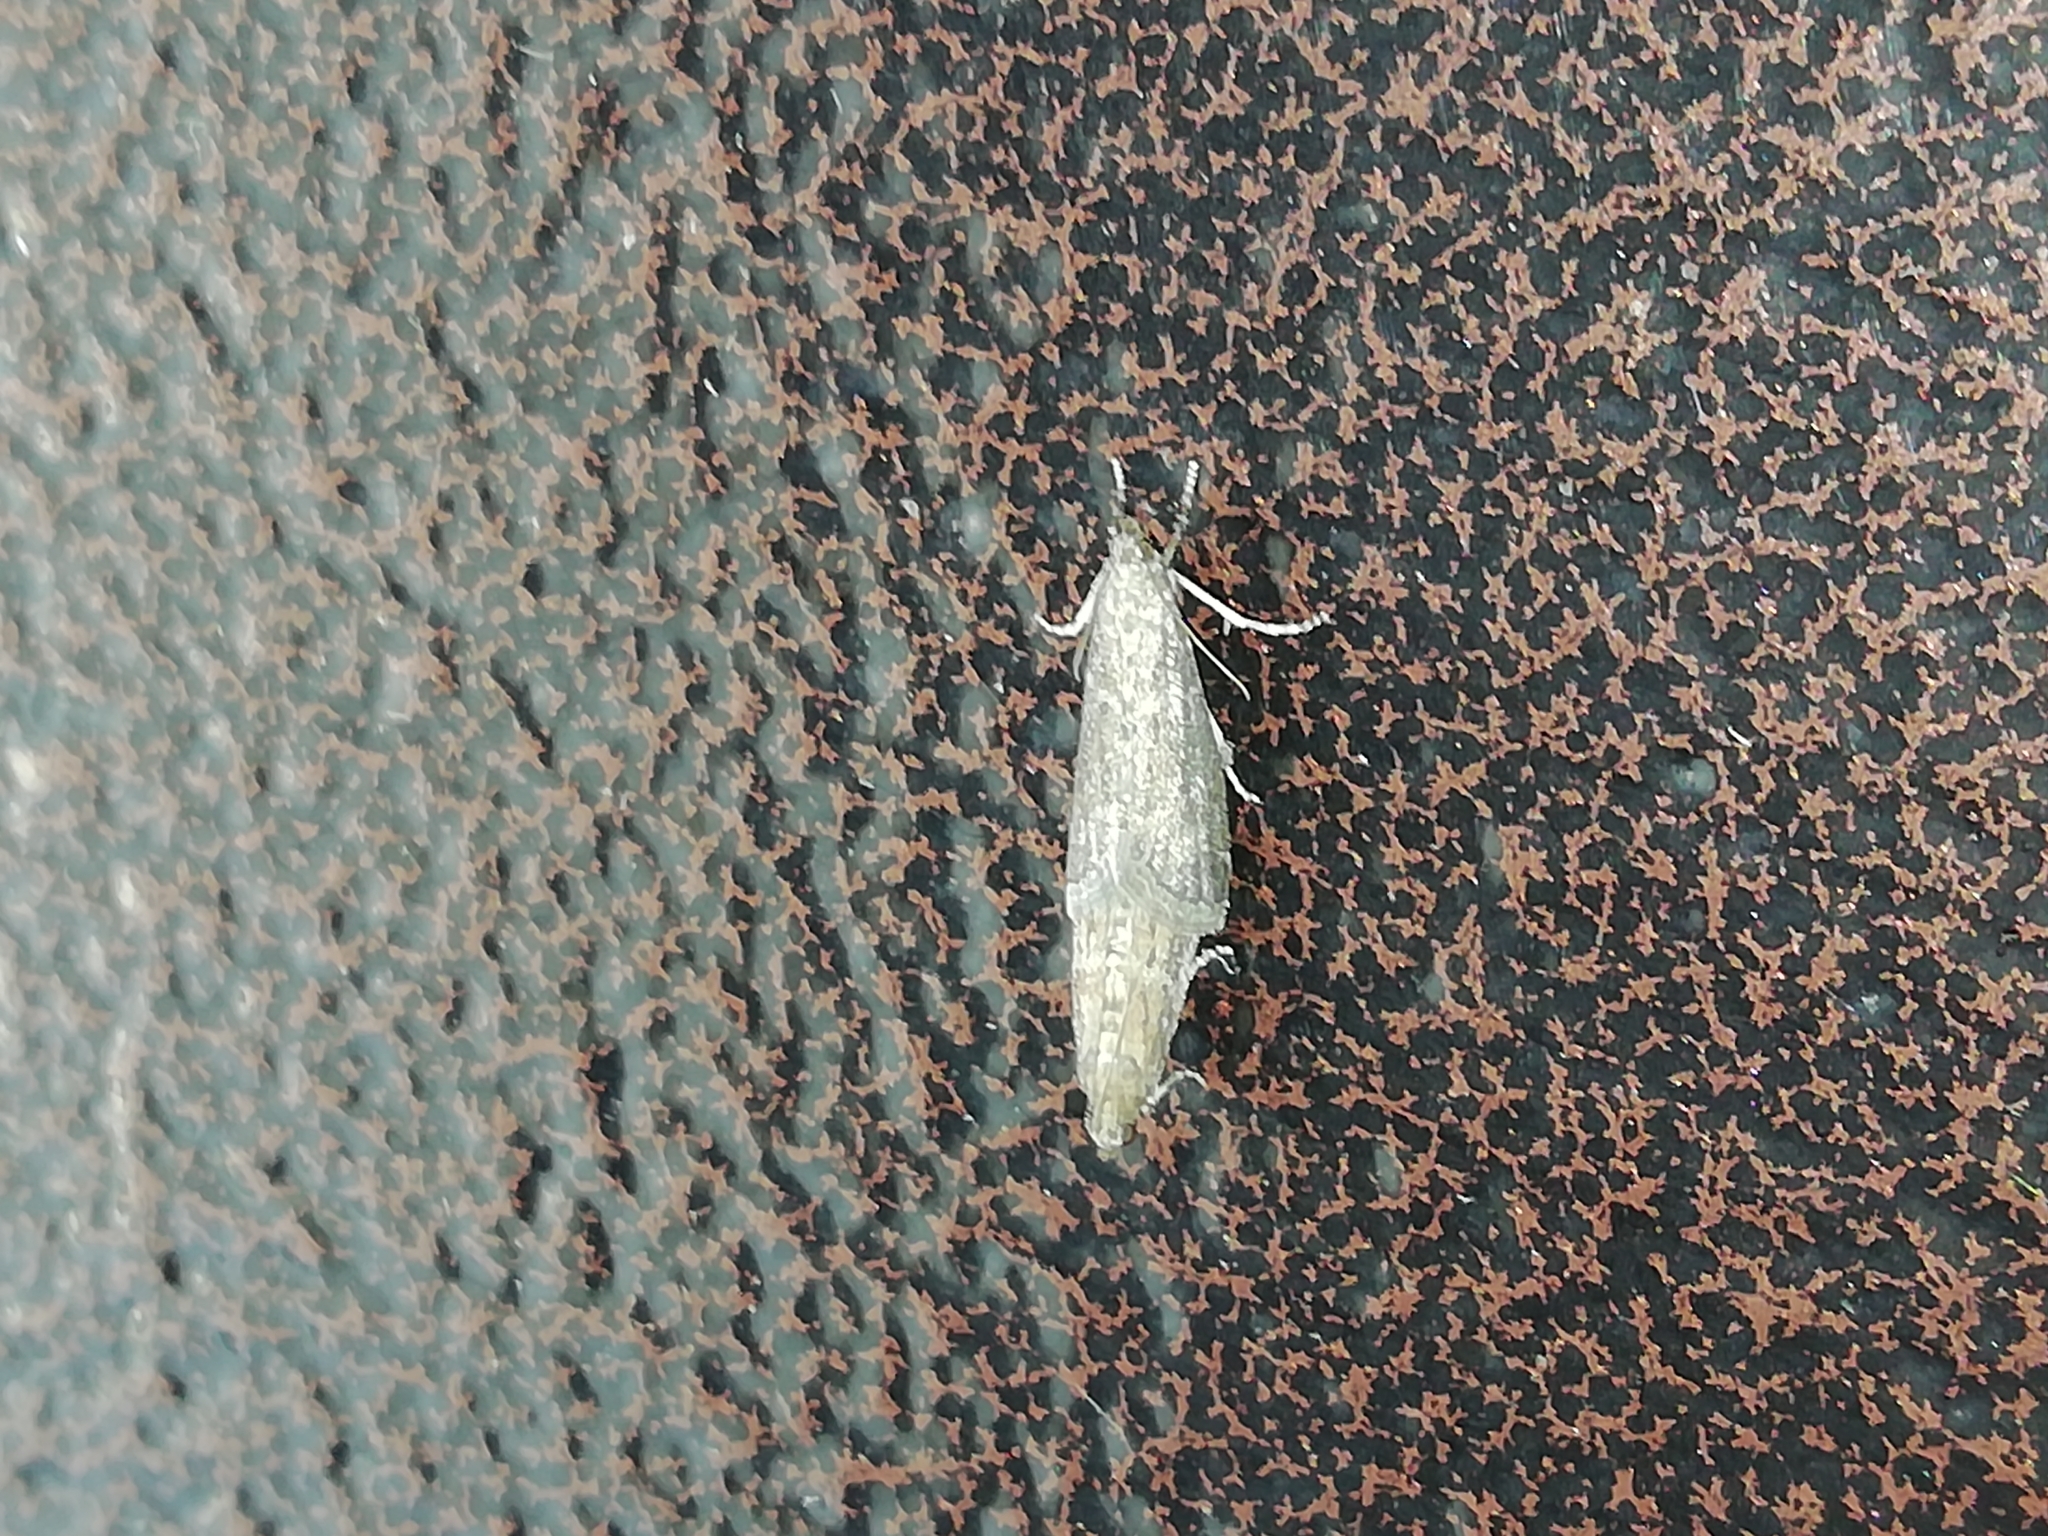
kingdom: Animalia
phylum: Arthropoda
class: Insecta
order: Lepidoptera
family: Pyralidae
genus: Pyla
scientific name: Pyla fusca
